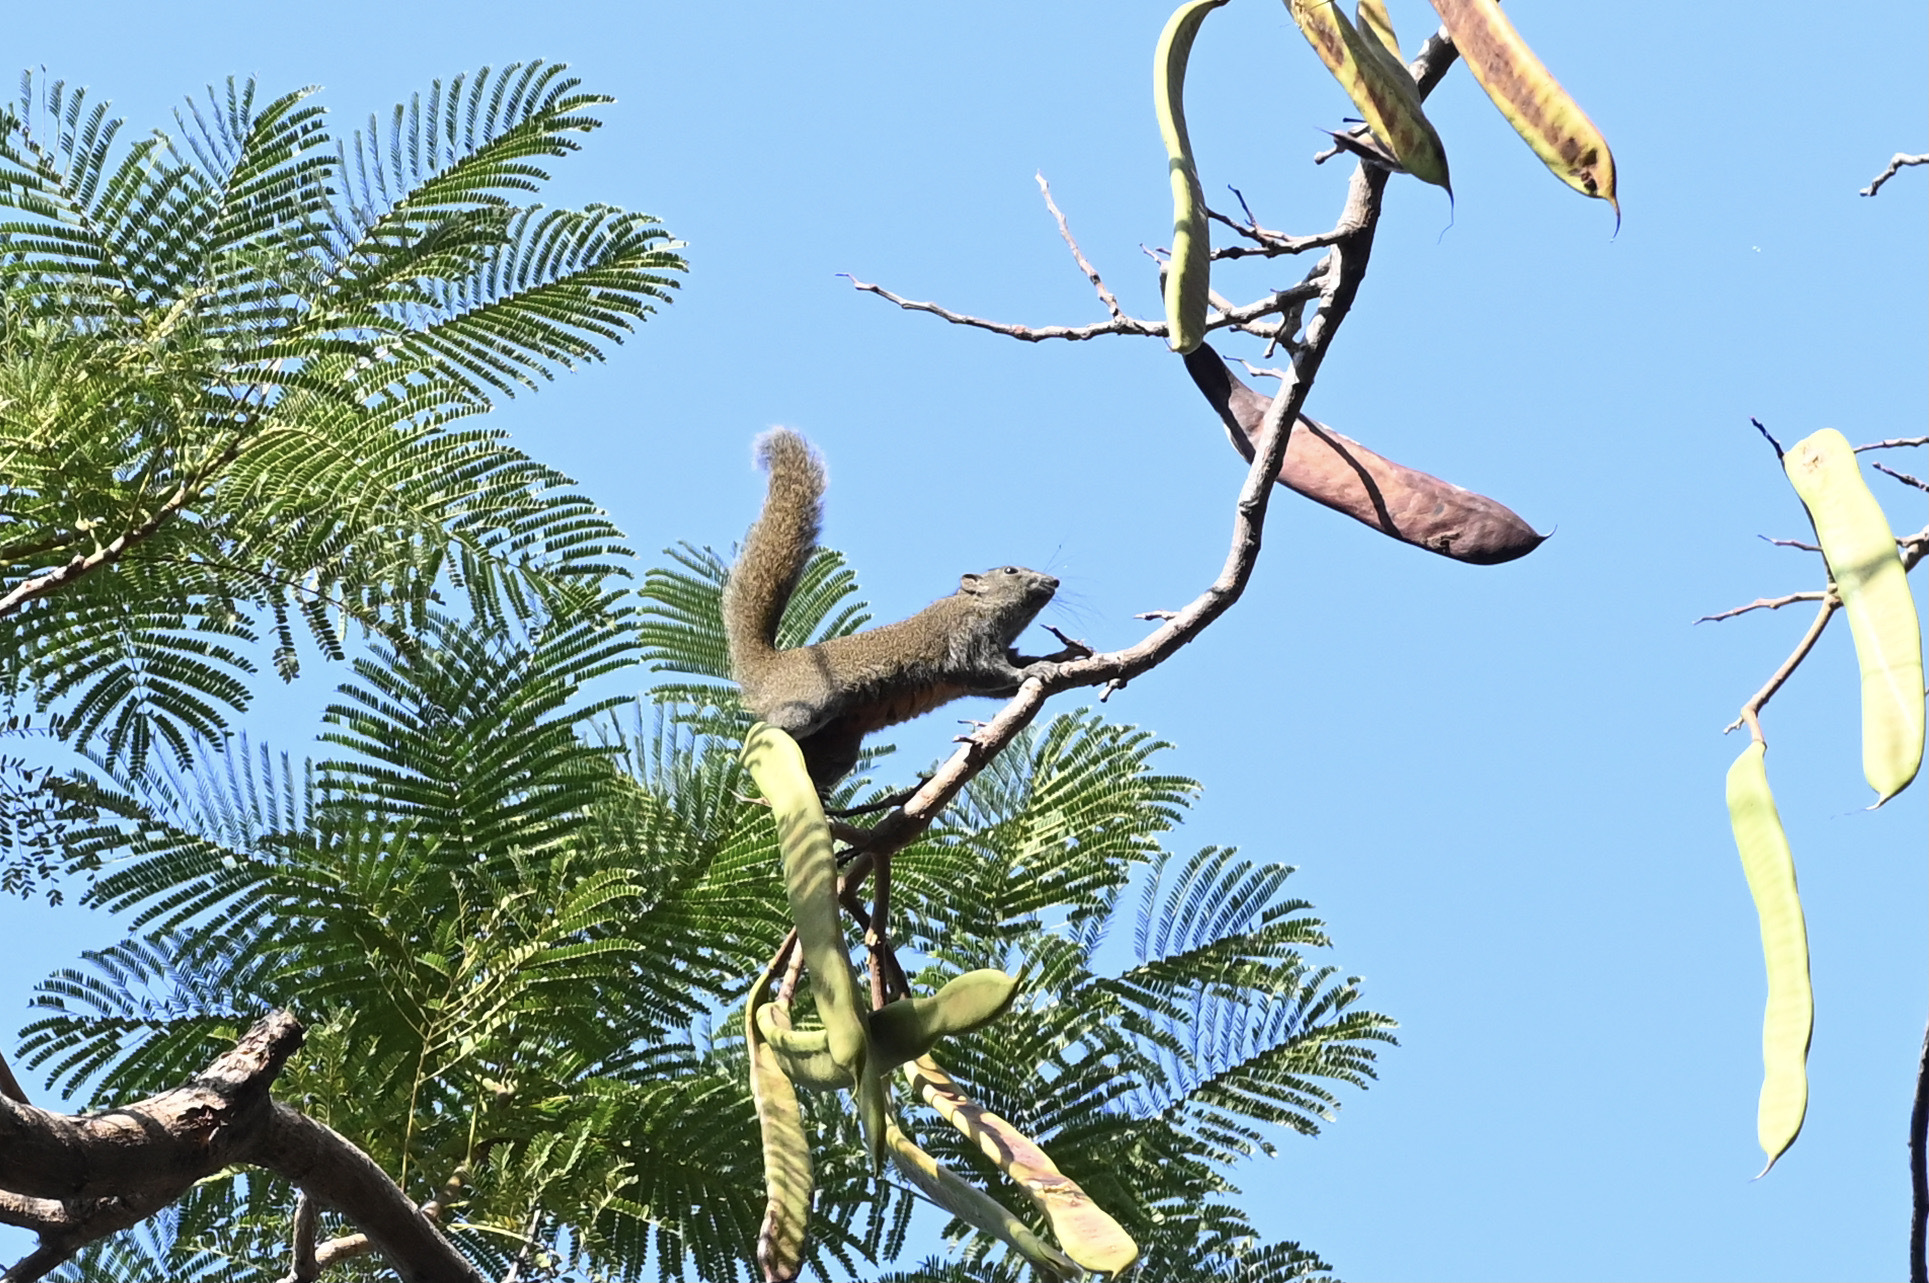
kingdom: Animalia
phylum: Chordata
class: Mammalia
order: Rodentia
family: Sciuridae
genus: Callosciurus
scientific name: Callosciurus erythraeus
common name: Pallas's squirrel
